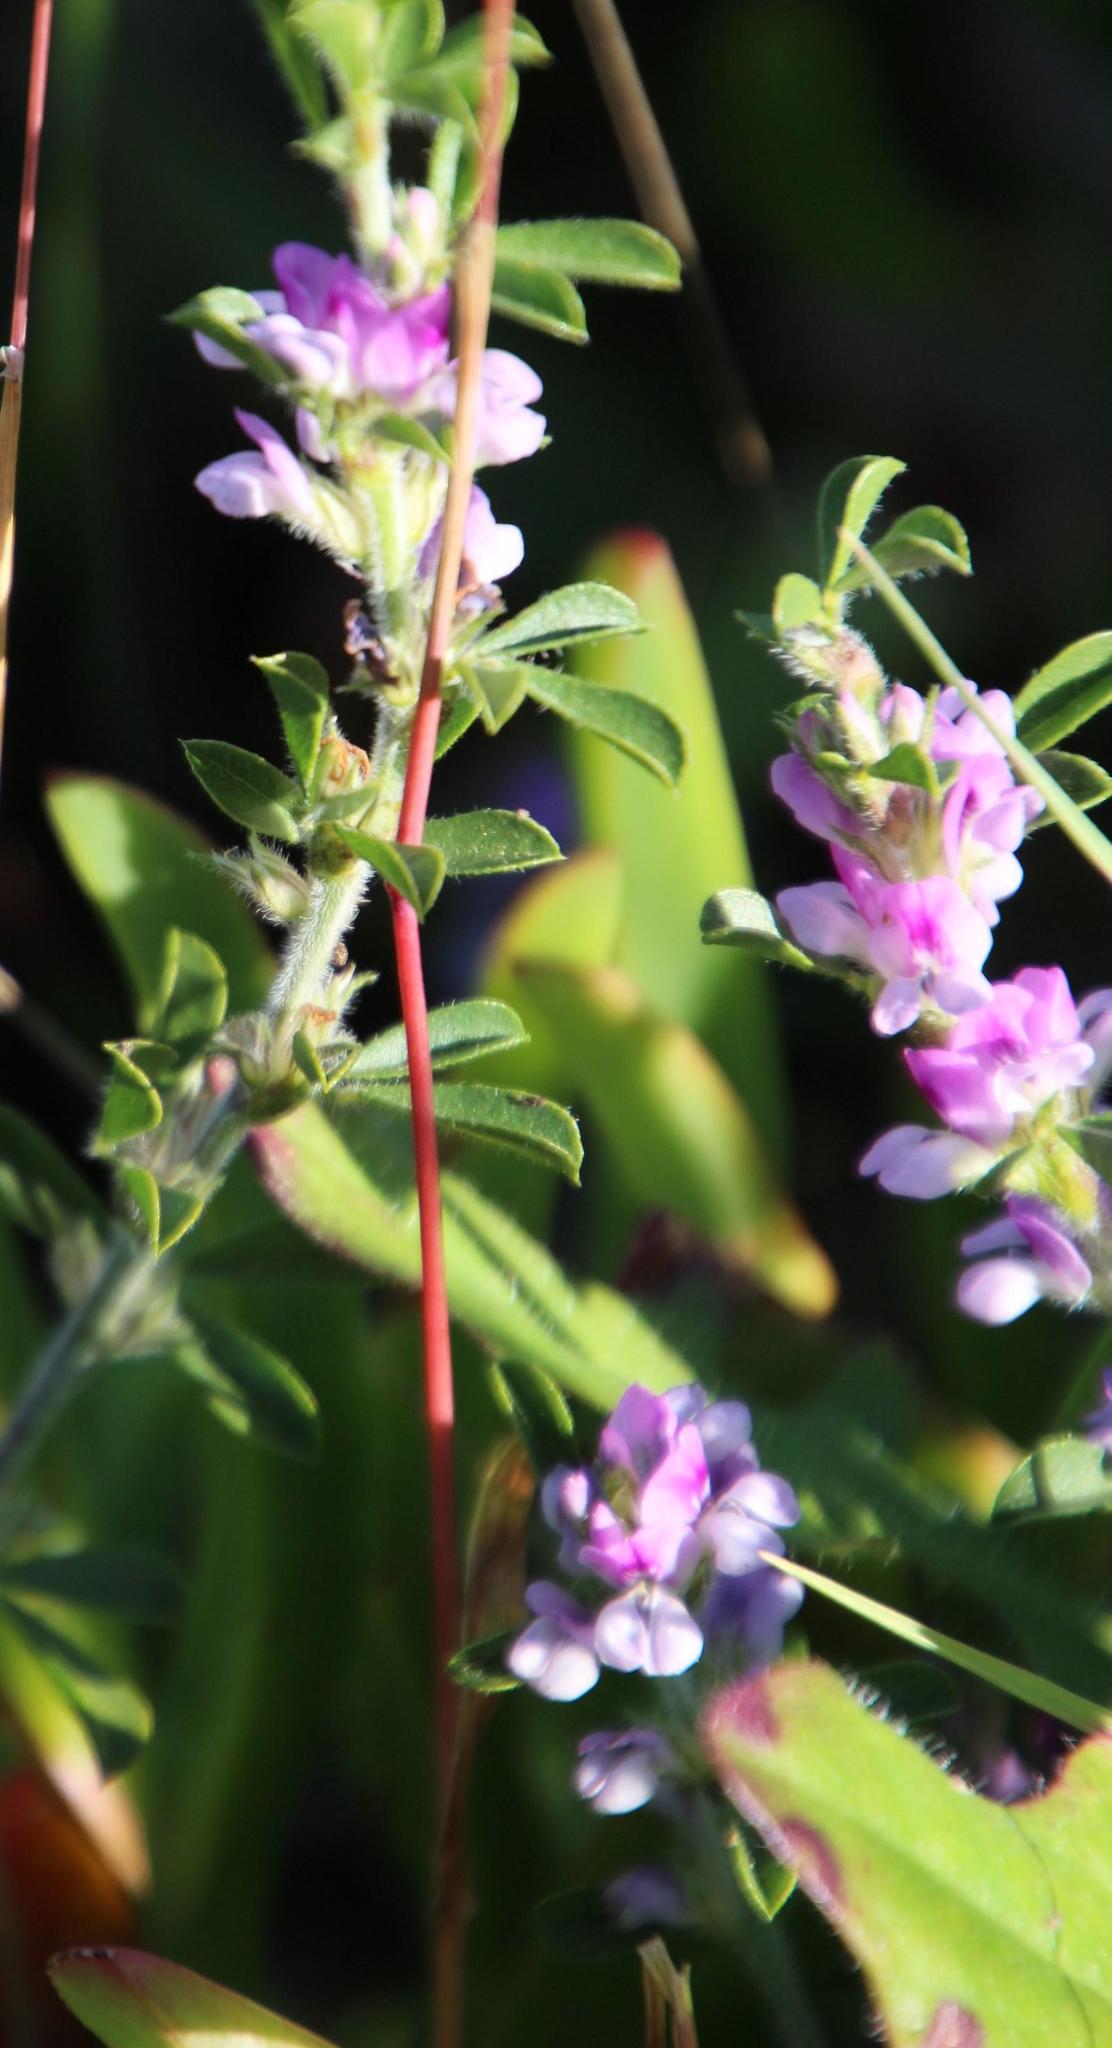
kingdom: Plantae
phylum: Tracheophyta
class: Magnoliopsida
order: Fabales
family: Fabaceae
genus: Psoralea
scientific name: Psoralea
